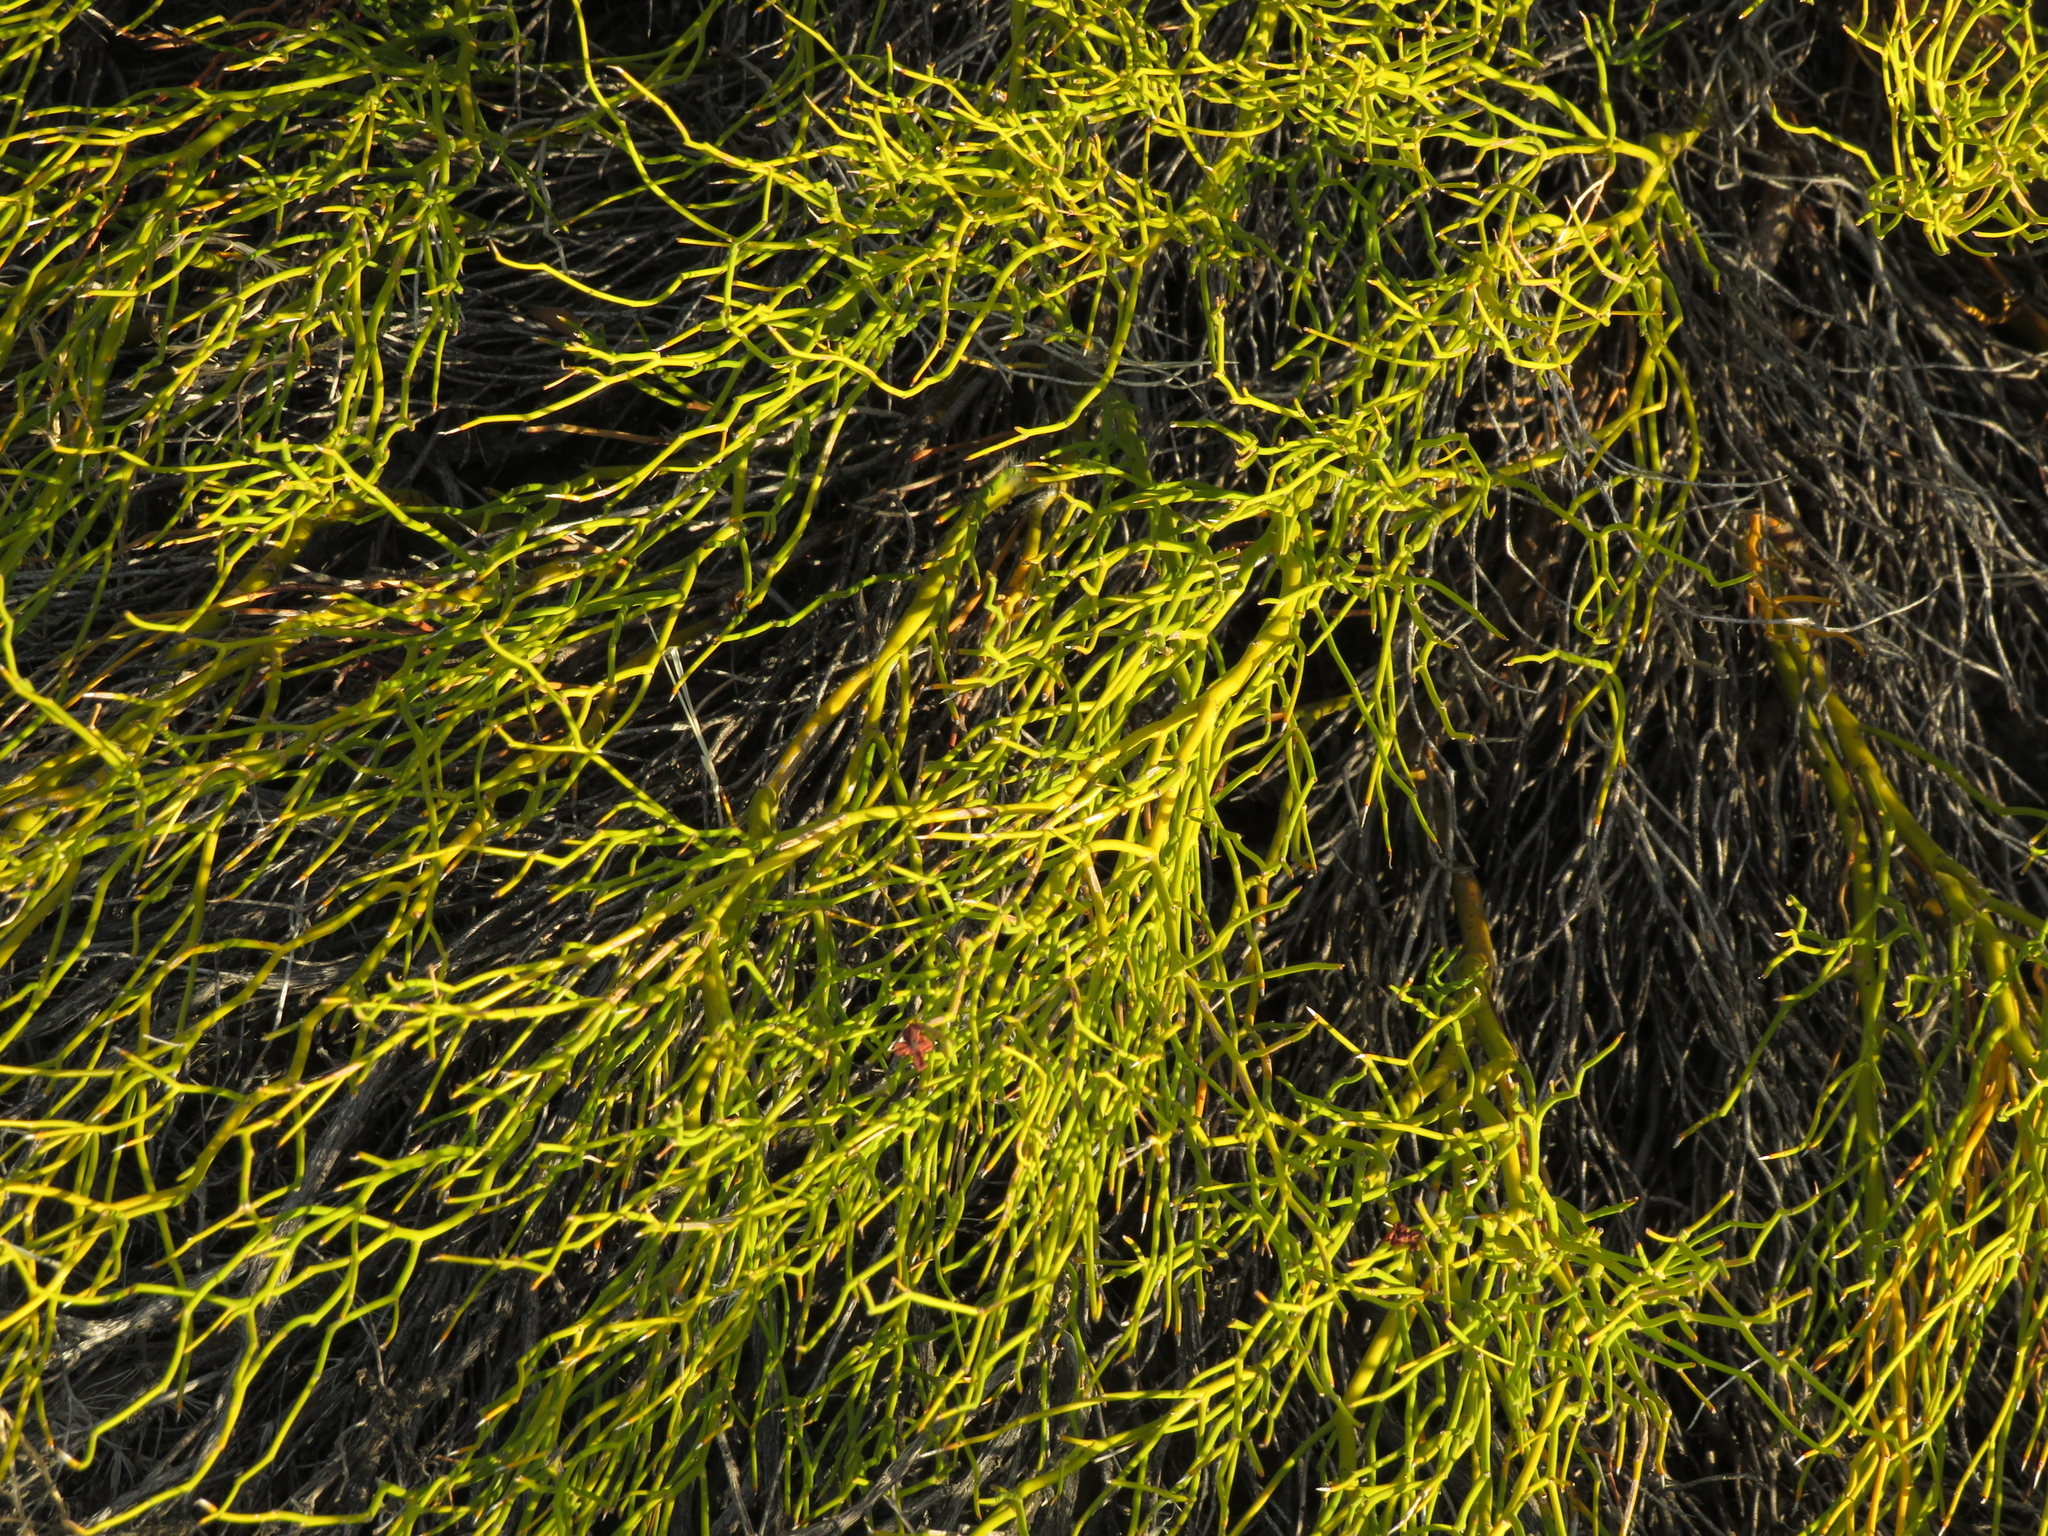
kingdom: Plantae
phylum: Tracheophyta
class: Magnoliopsida
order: Fabales
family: Fabaceae
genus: Senna
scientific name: Senna aphylla
